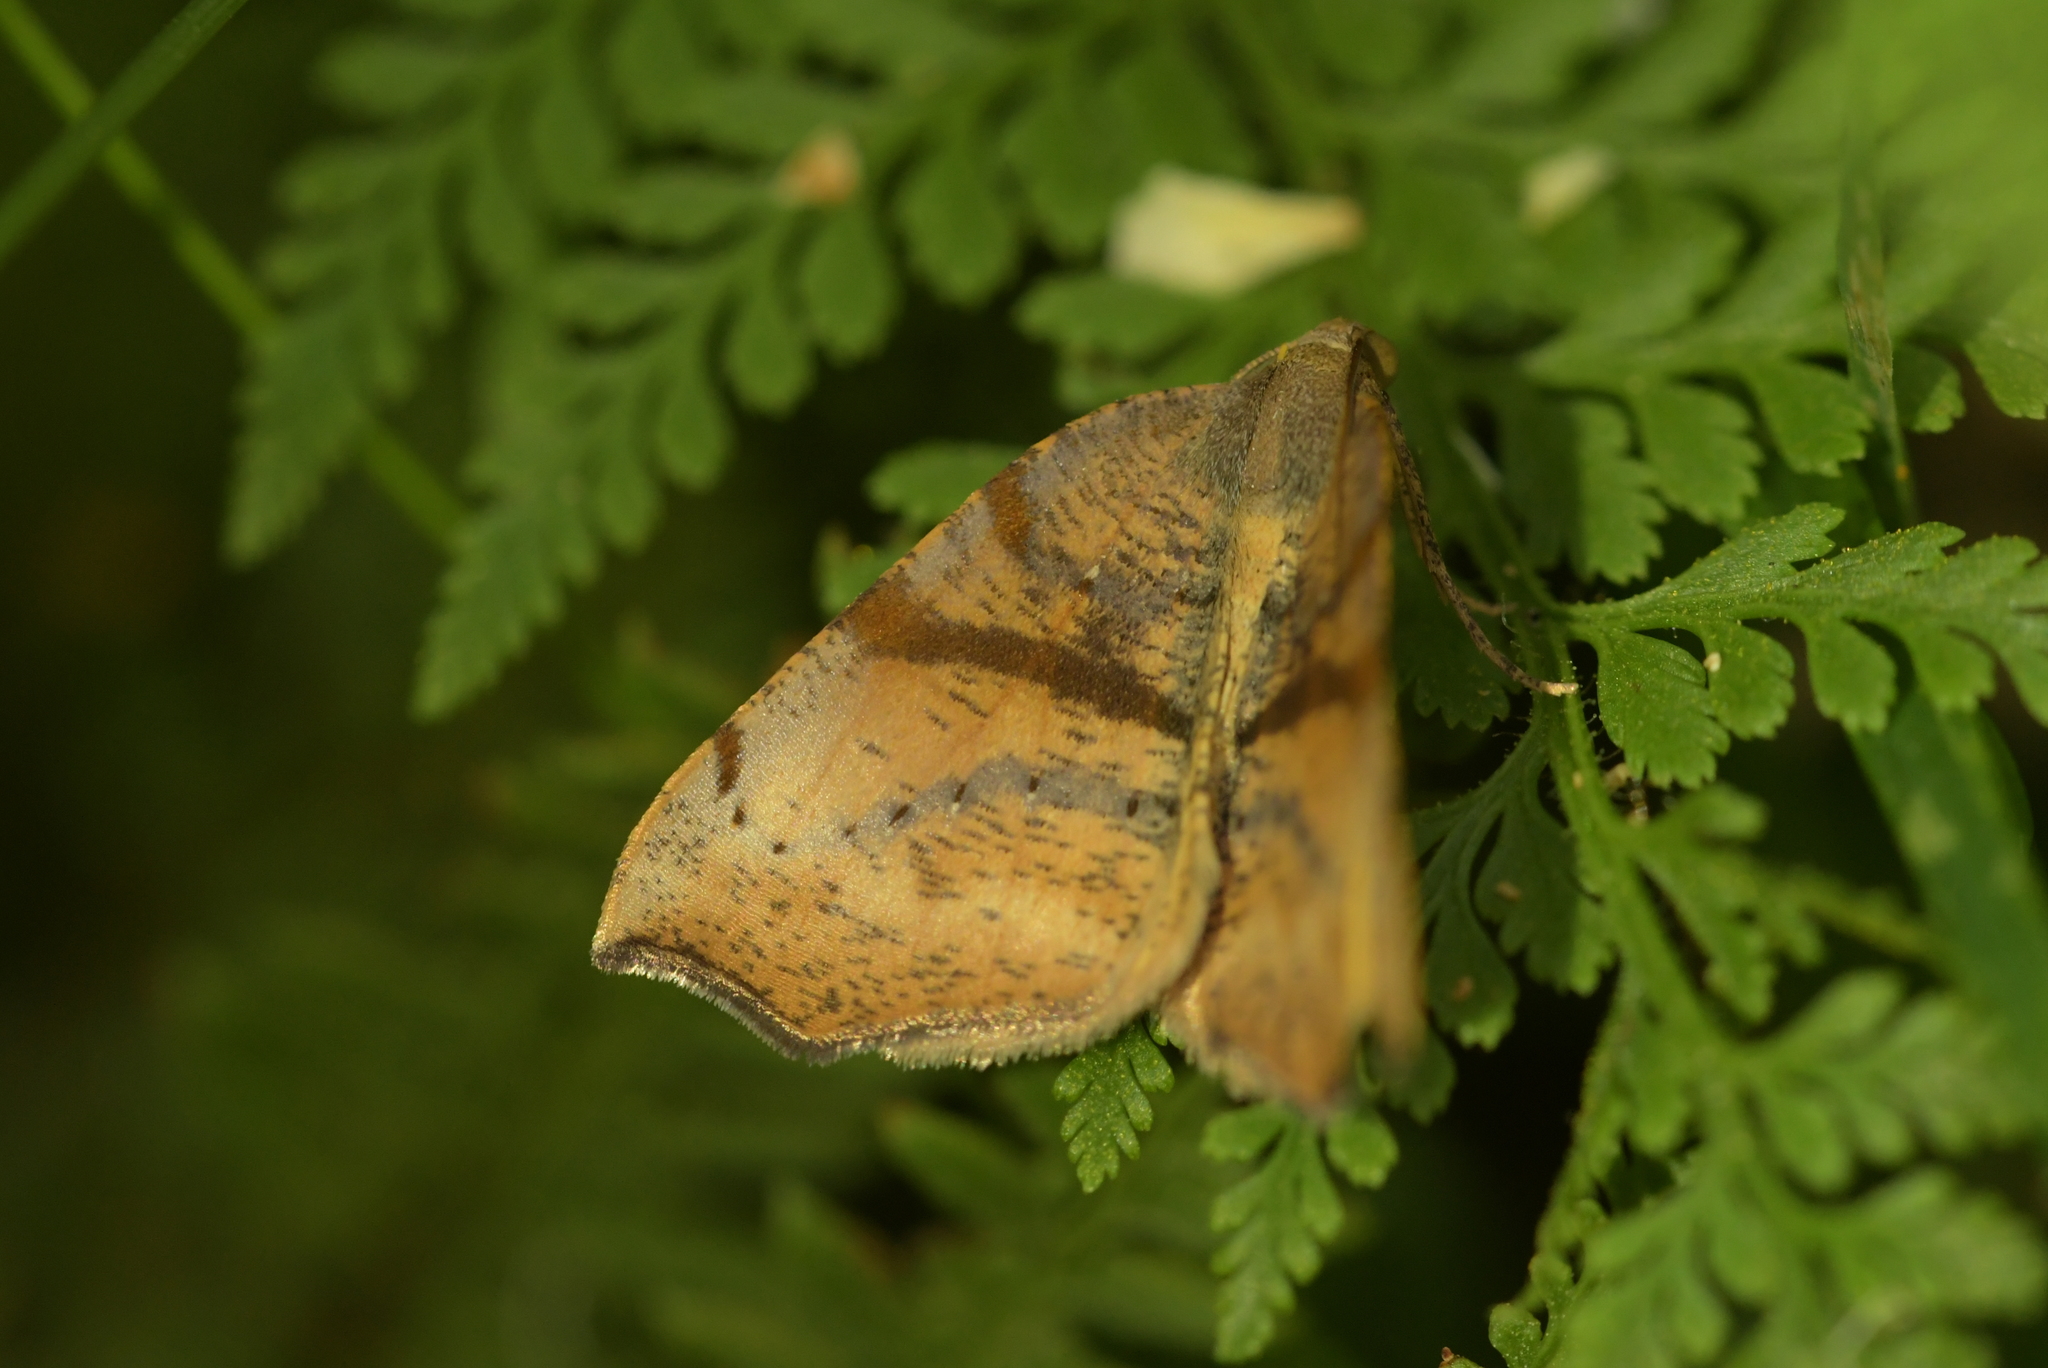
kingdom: Animalia
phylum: Arthropoda
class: Insecta
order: Lepidoptera
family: Geometridae
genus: Sestra
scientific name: Sestra flexata
